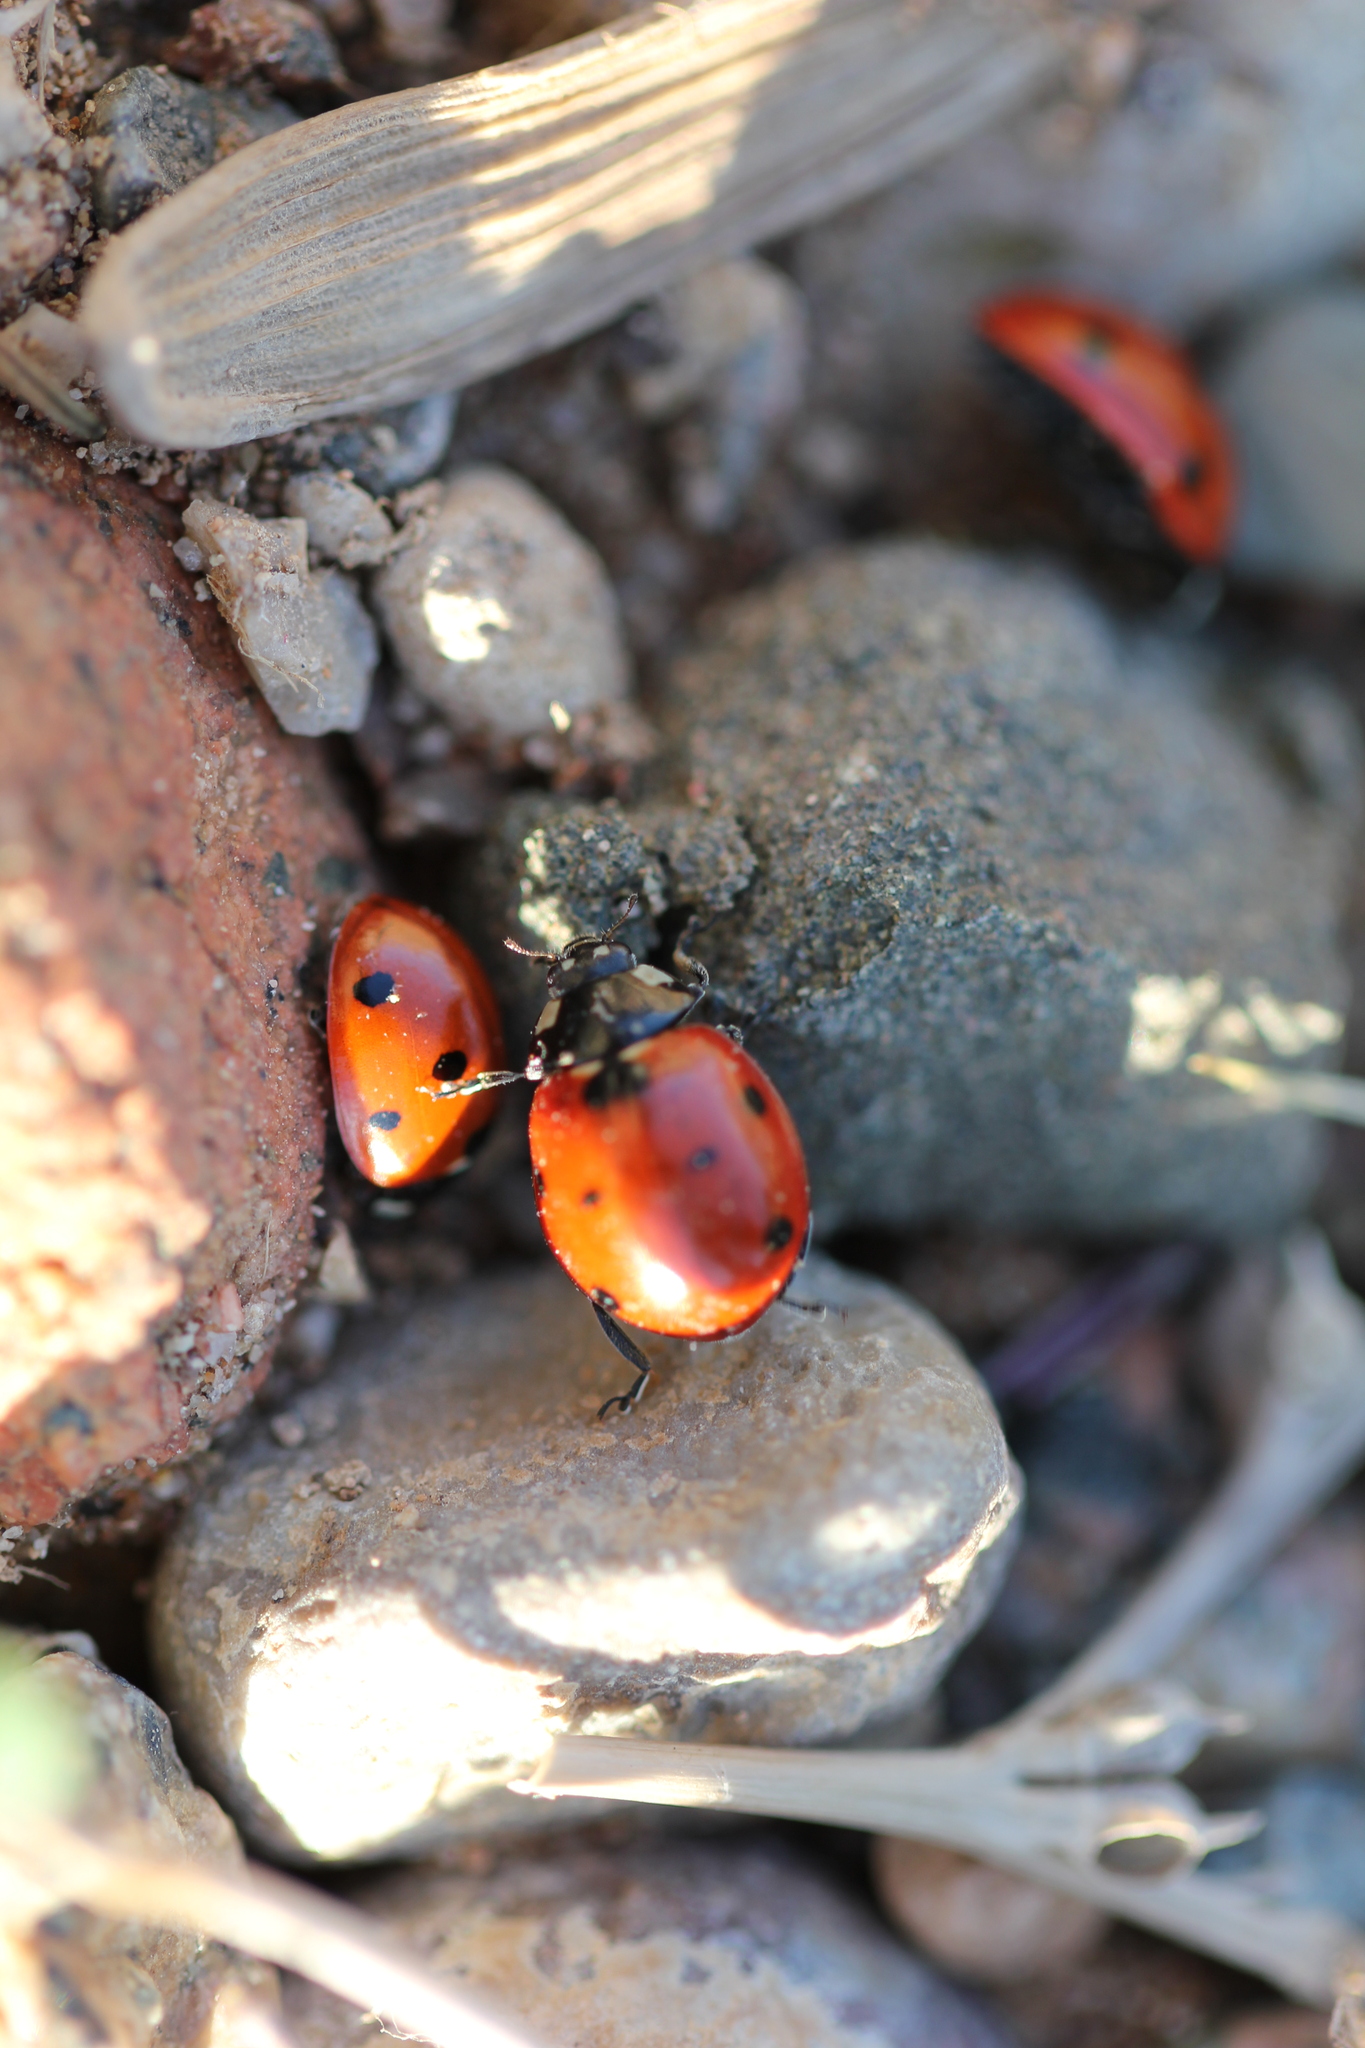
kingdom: Animalia
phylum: Arthropoda
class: Insecta
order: Coleoptera
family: Coccinellidae
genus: Coccinella
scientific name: Coccinella septempunctata
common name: Sevenspotted lady beetle
